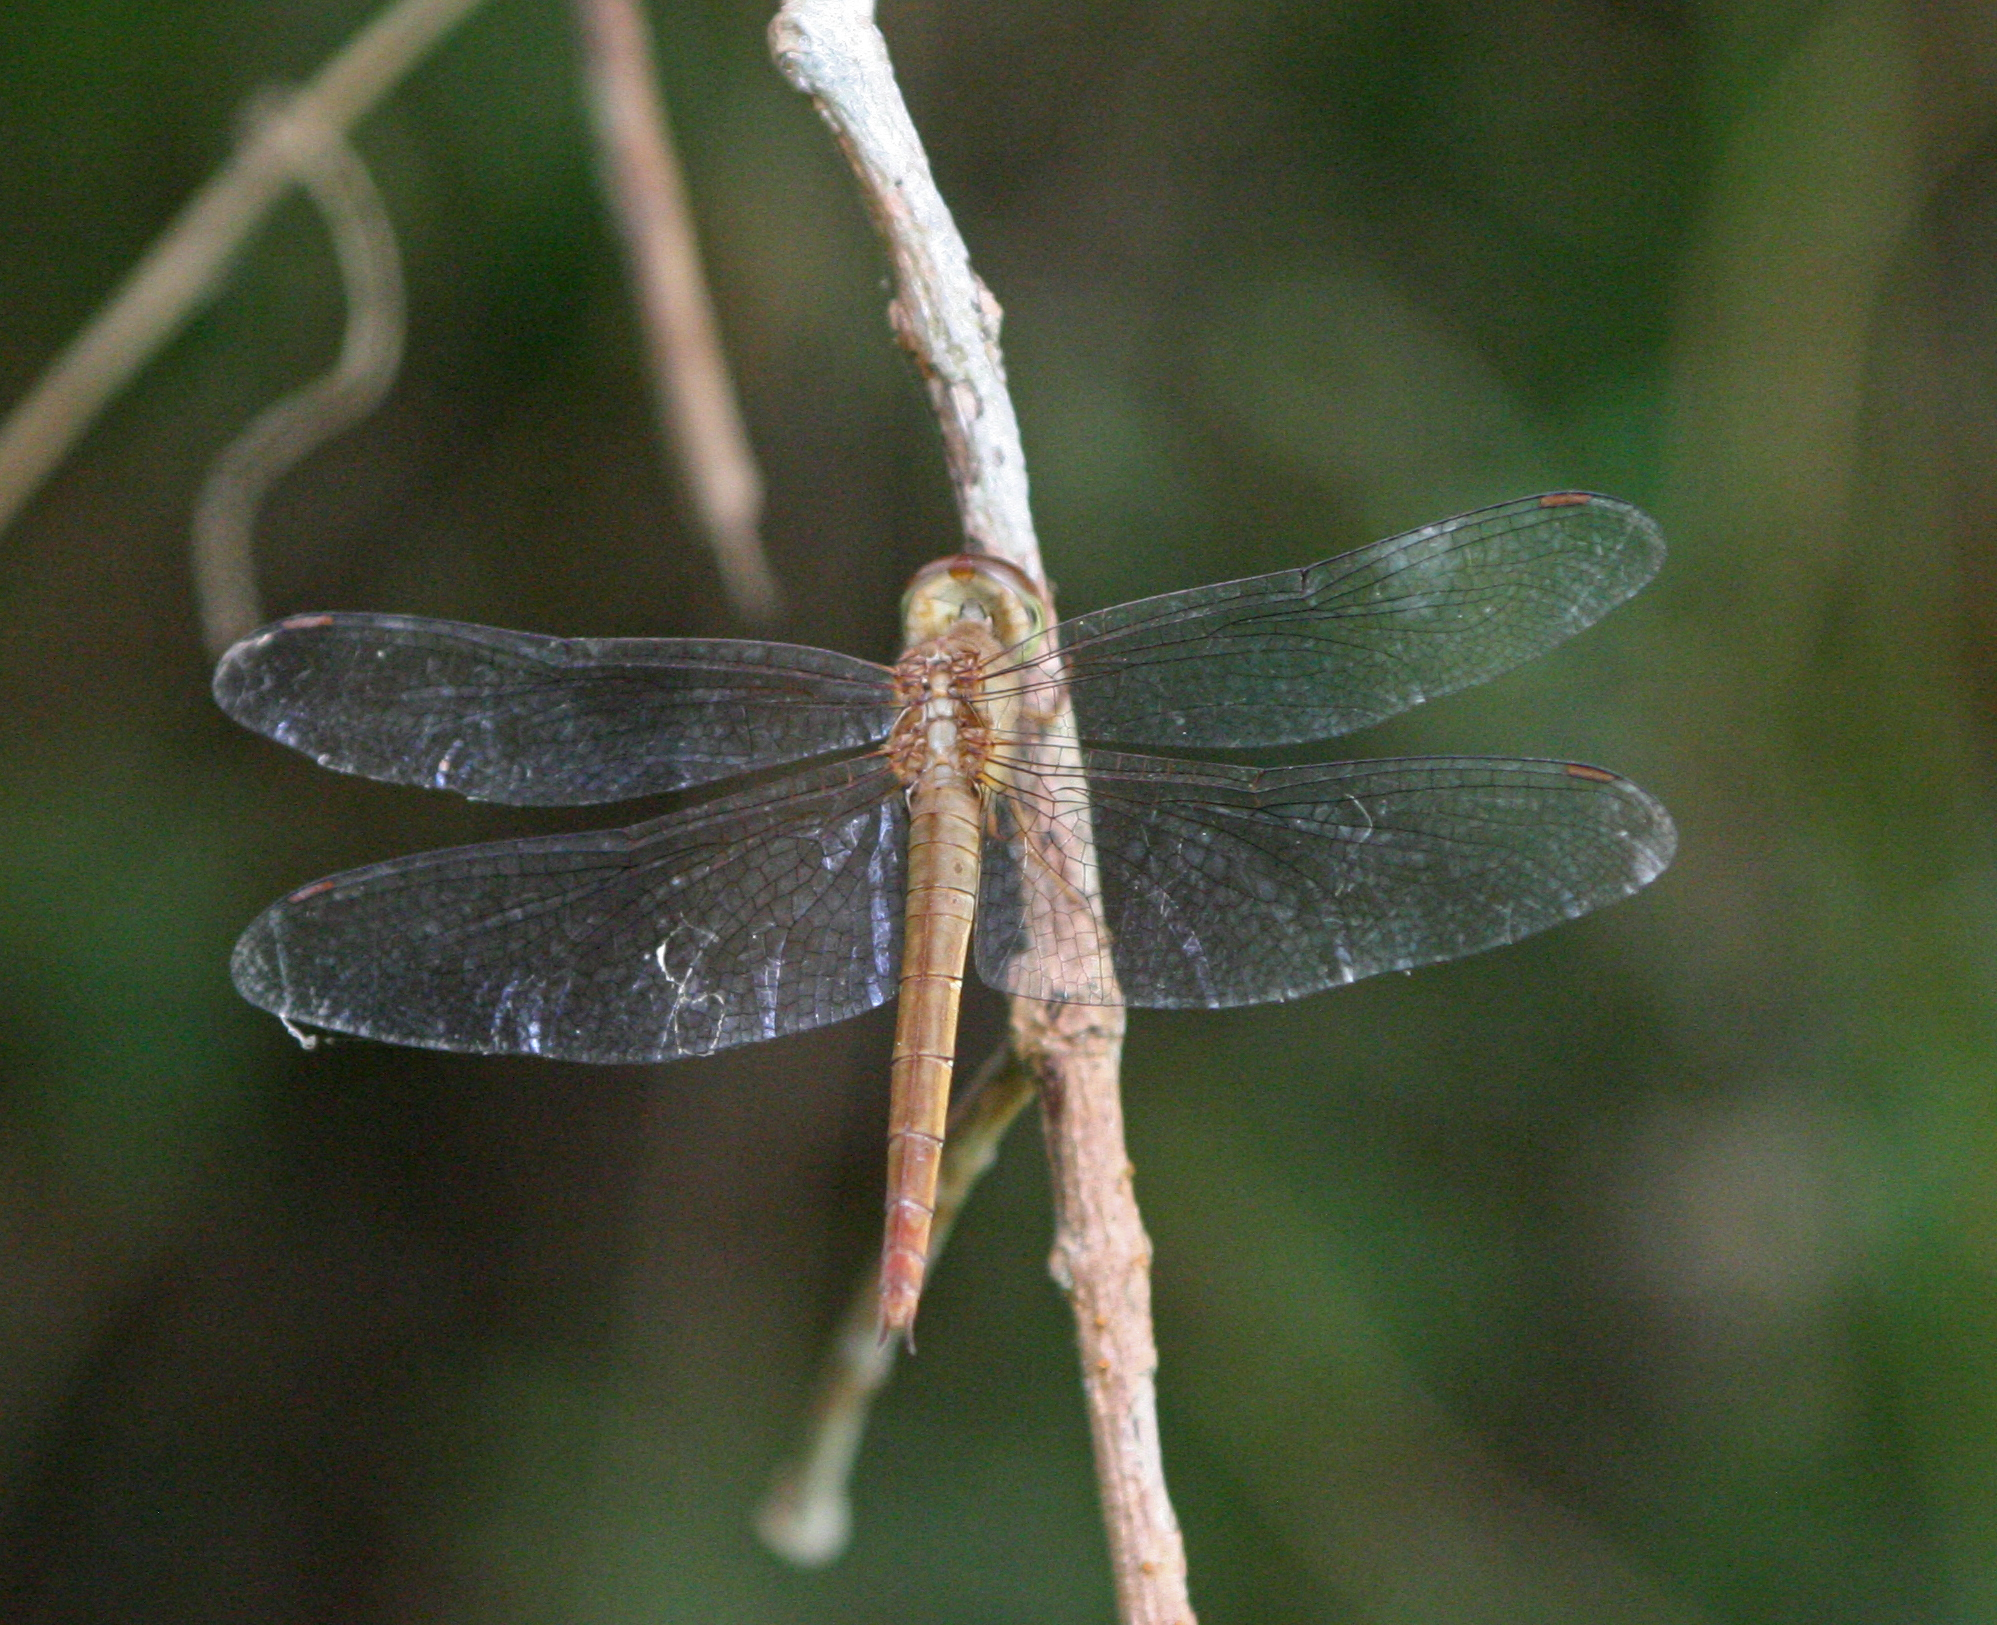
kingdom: Animalia
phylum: Arthropoda
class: Insecta
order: Odonata
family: Libellulidae
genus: Tholymis
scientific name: Tholymis tillarga
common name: Coral-tailed cloud wing
